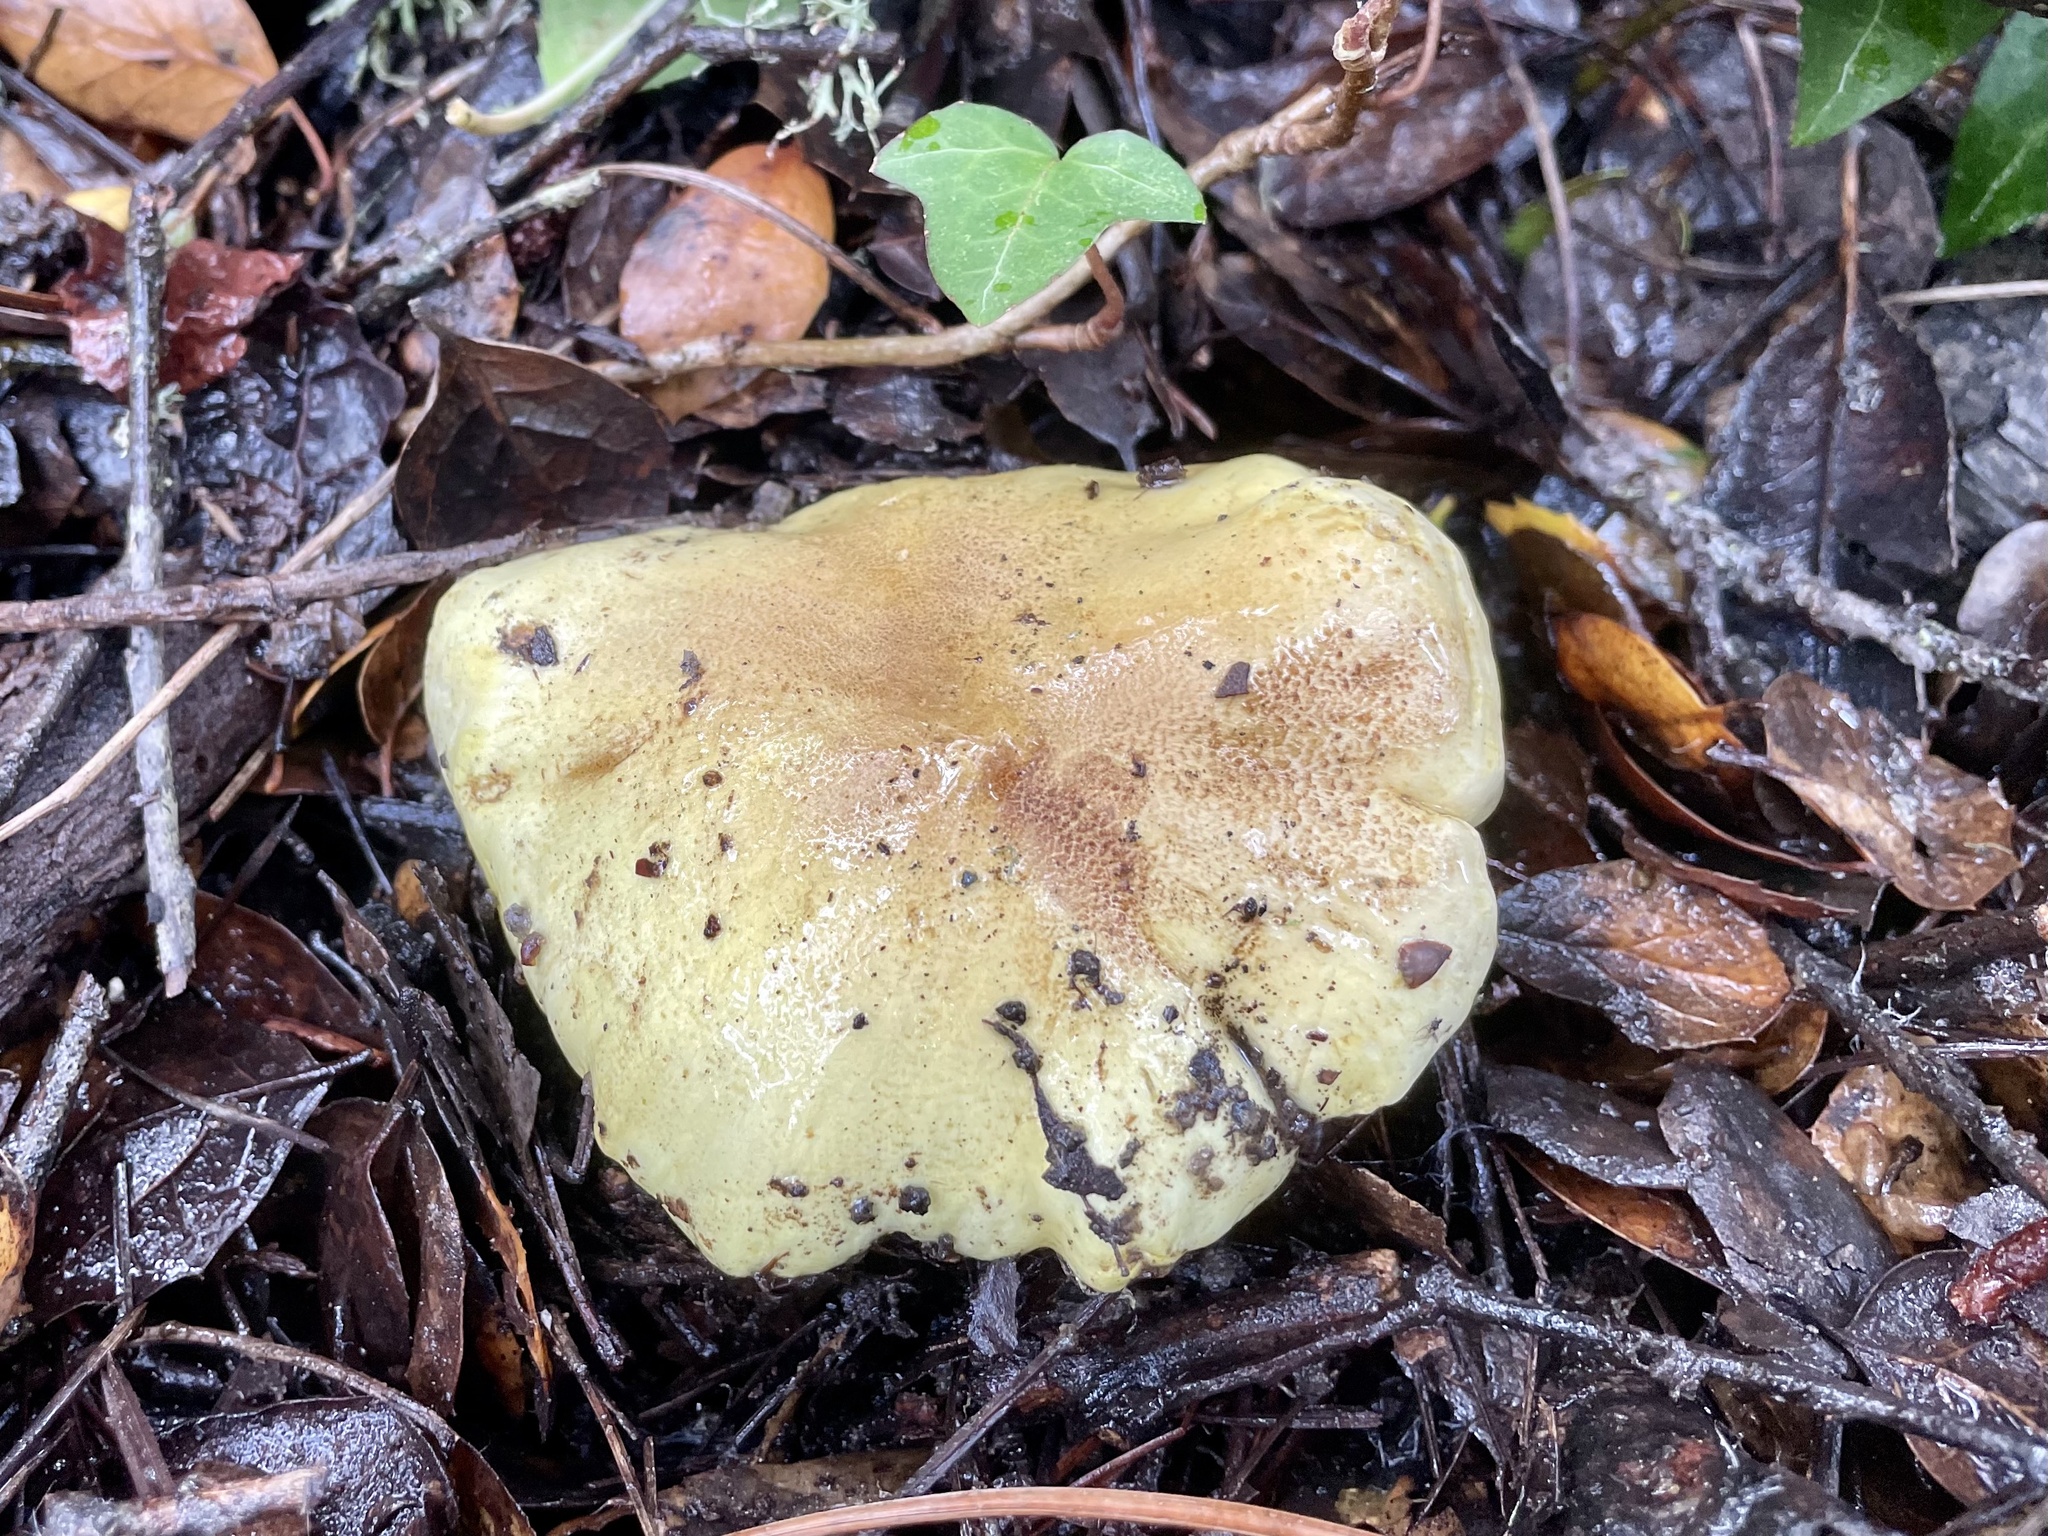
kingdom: Fungi
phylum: Basidiomycota
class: Agaricomycetes
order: Agaricales
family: Tricholomataceae
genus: Melanoleuca
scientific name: Melanoleuca yatesii
